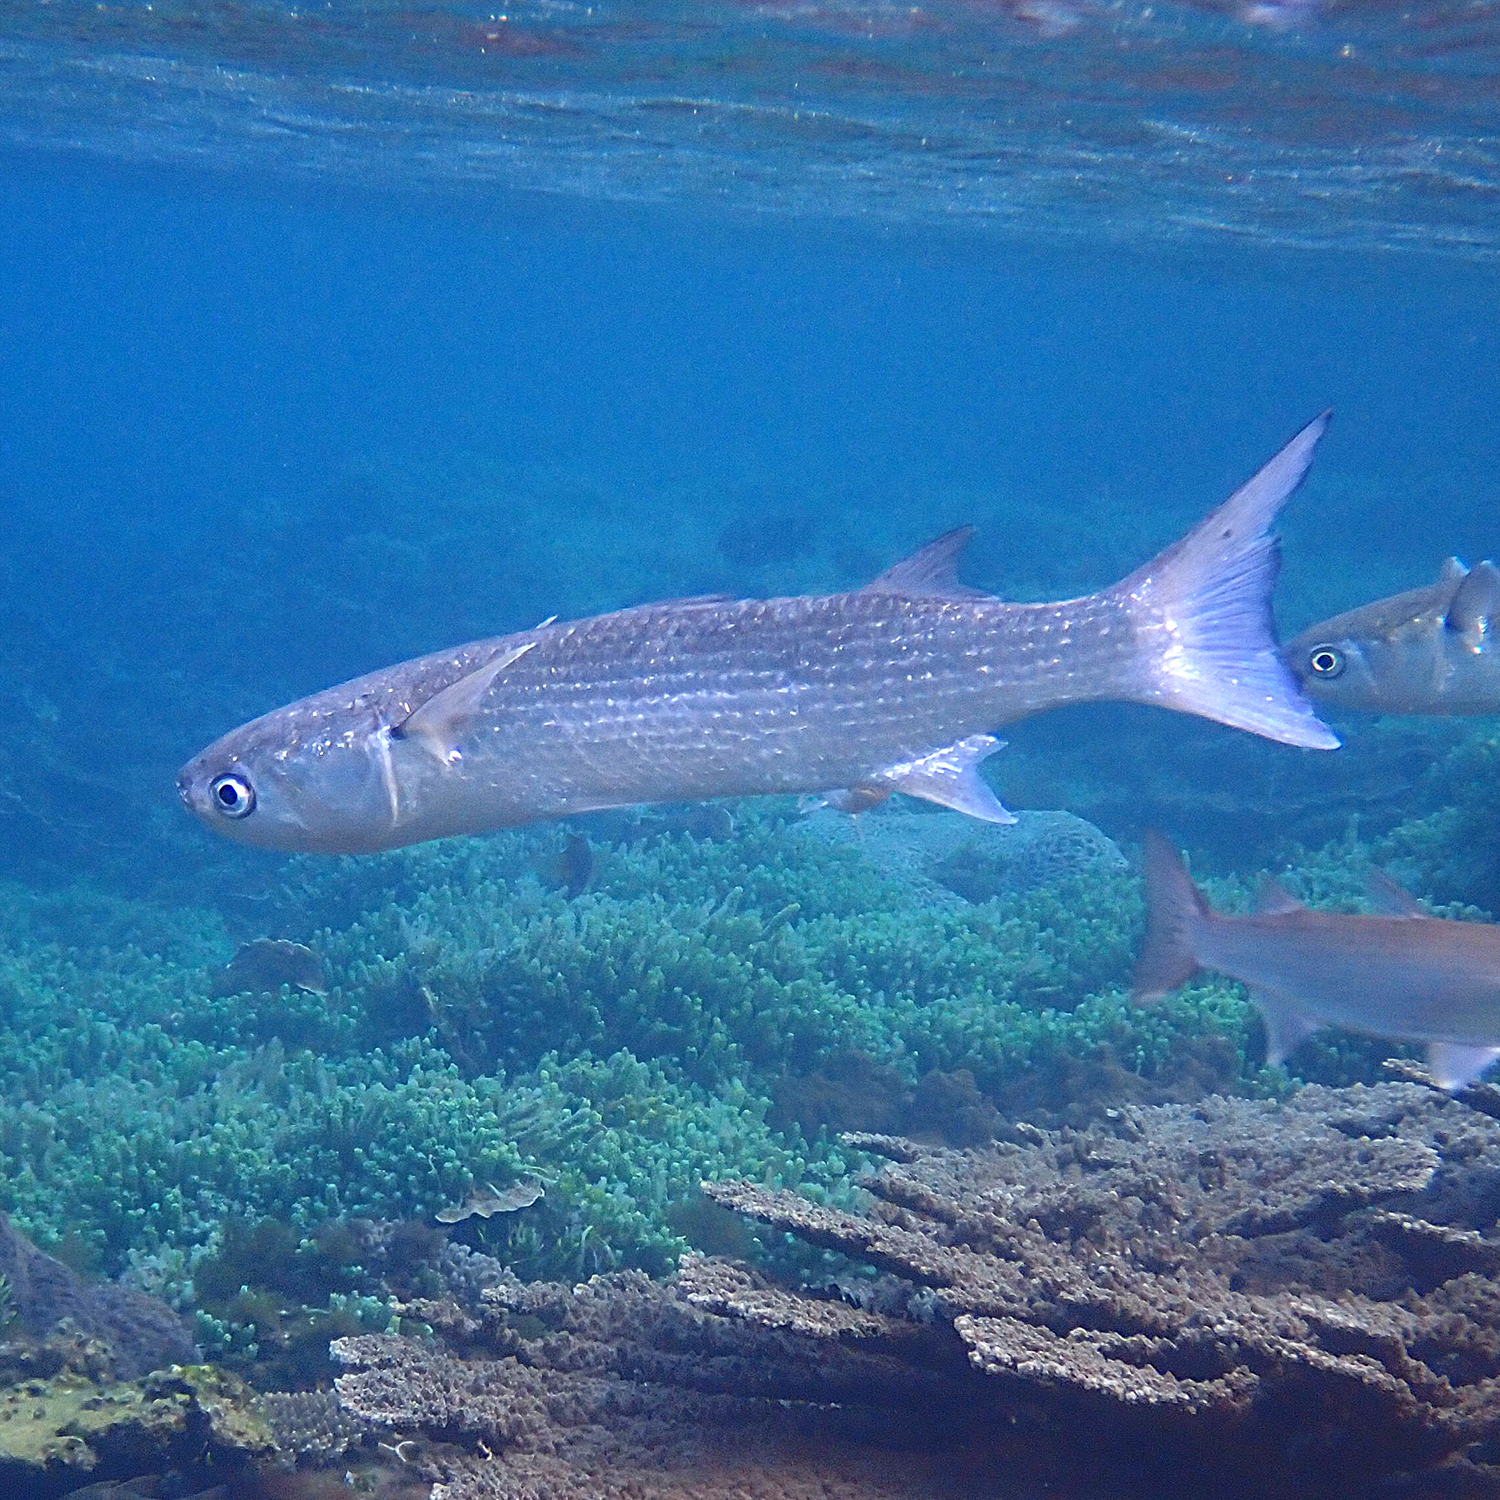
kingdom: Animalia
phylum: Chordata
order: Mugiliformes
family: Mugilidae
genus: Crenimugil
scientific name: Crenimugil crenilabis
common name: Fringelip mullet
